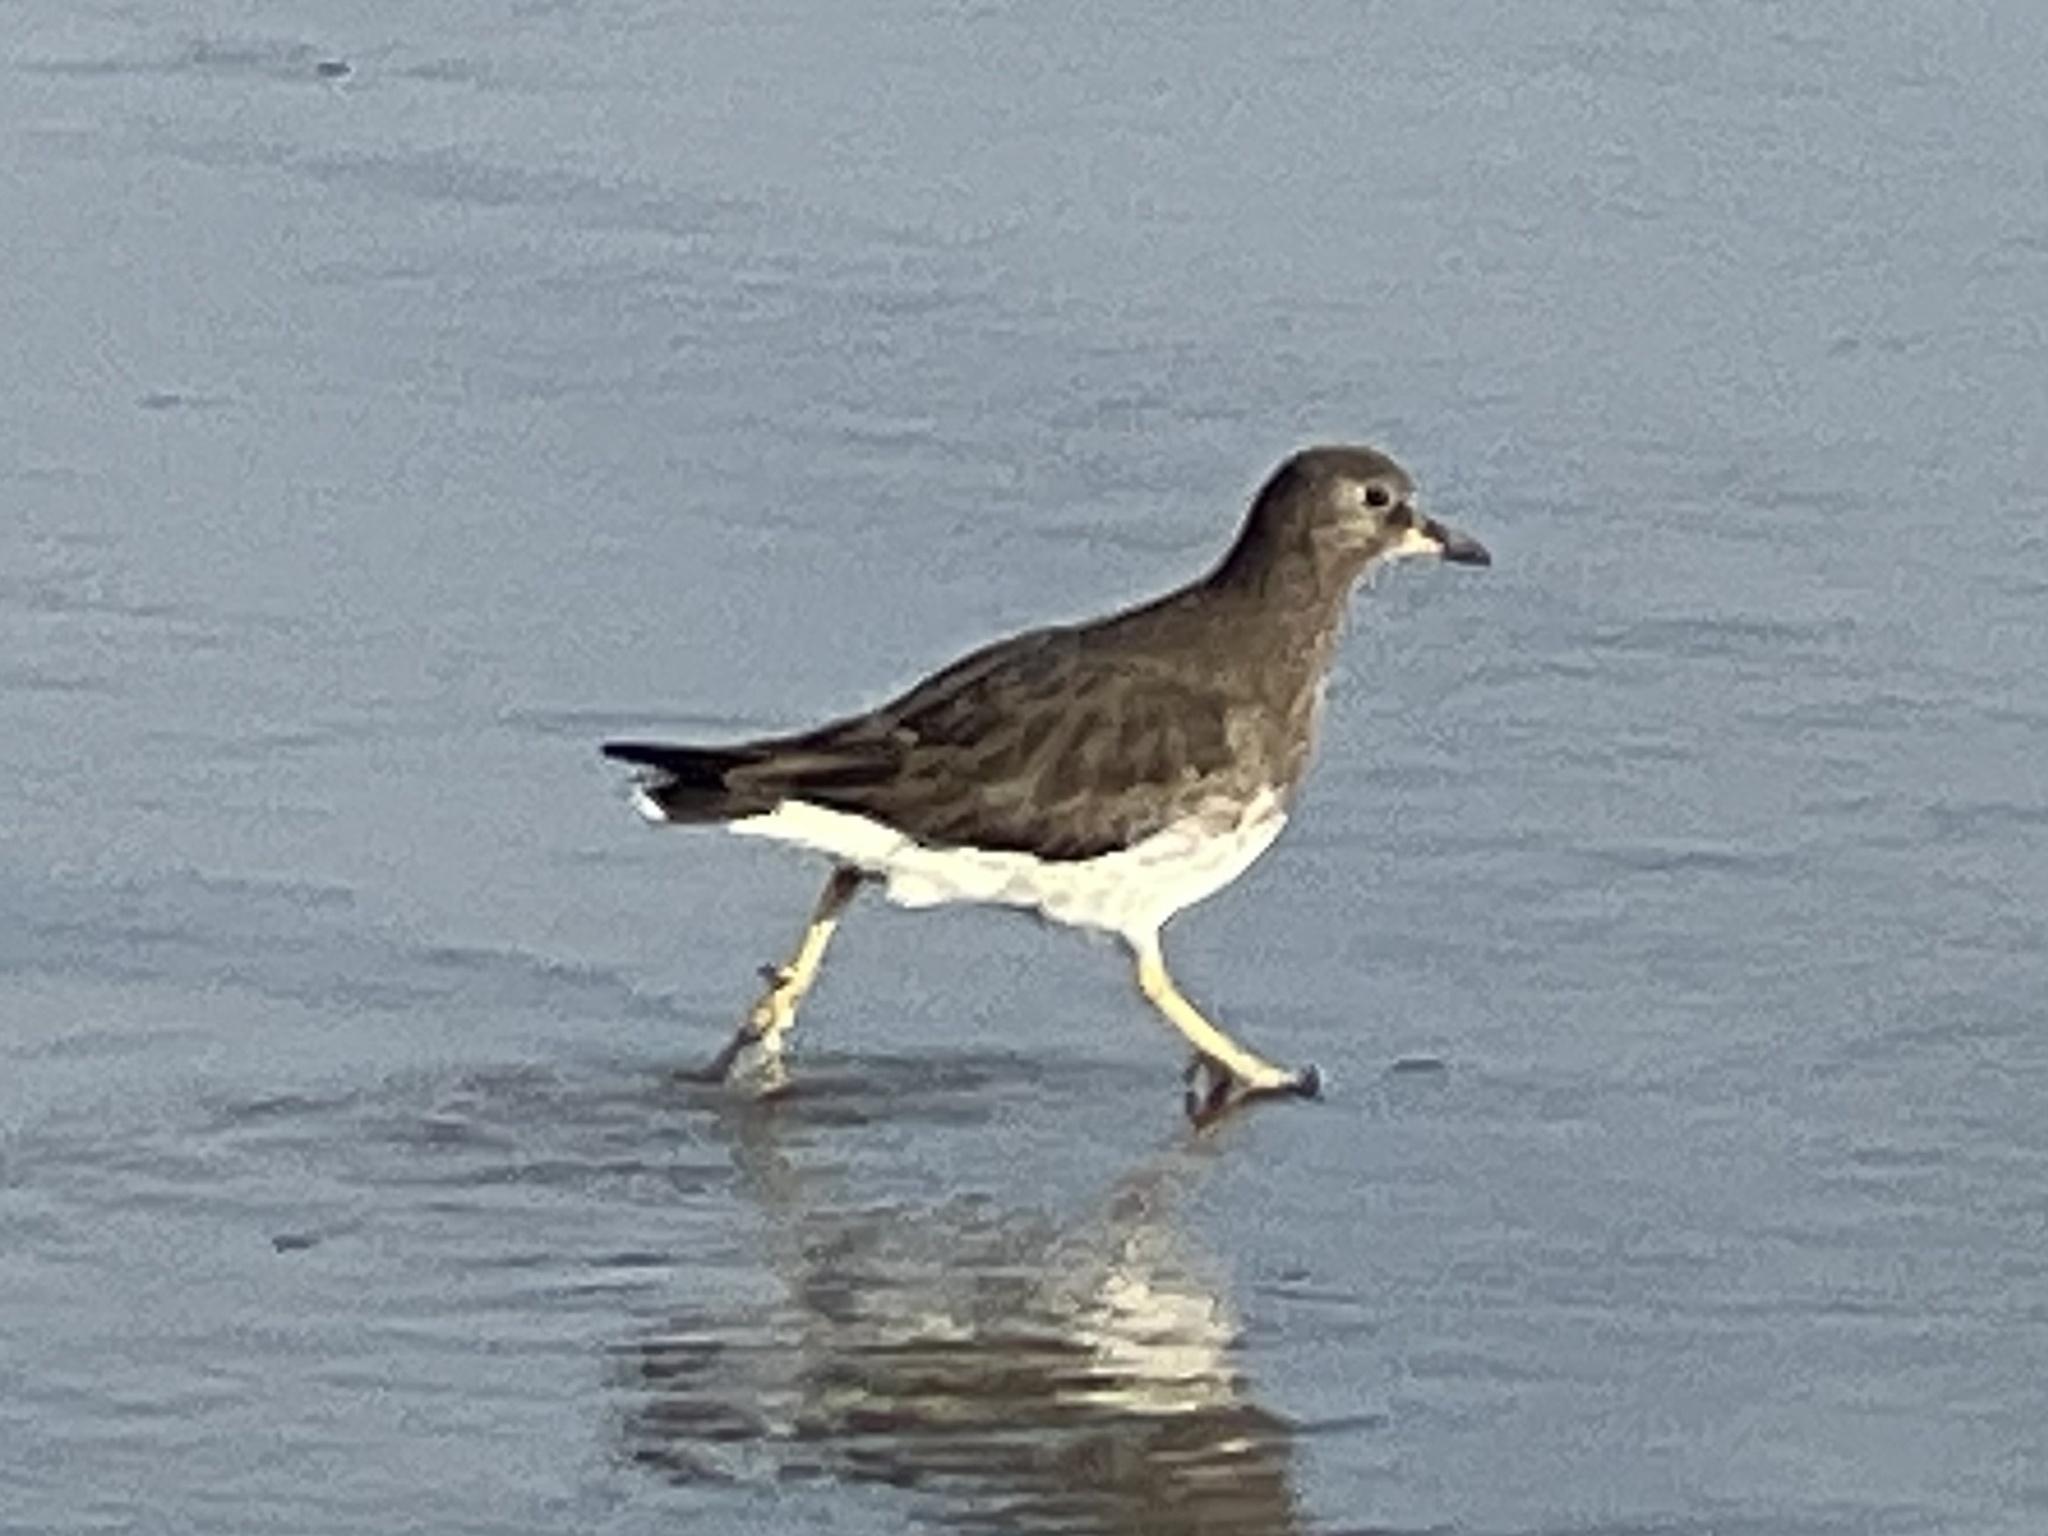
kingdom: Animalia
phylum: Chordata
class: Aves
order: Charadriiformes
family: Scolopacidae
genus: Calidris
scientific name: Calidris virgata
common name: Surfbird
